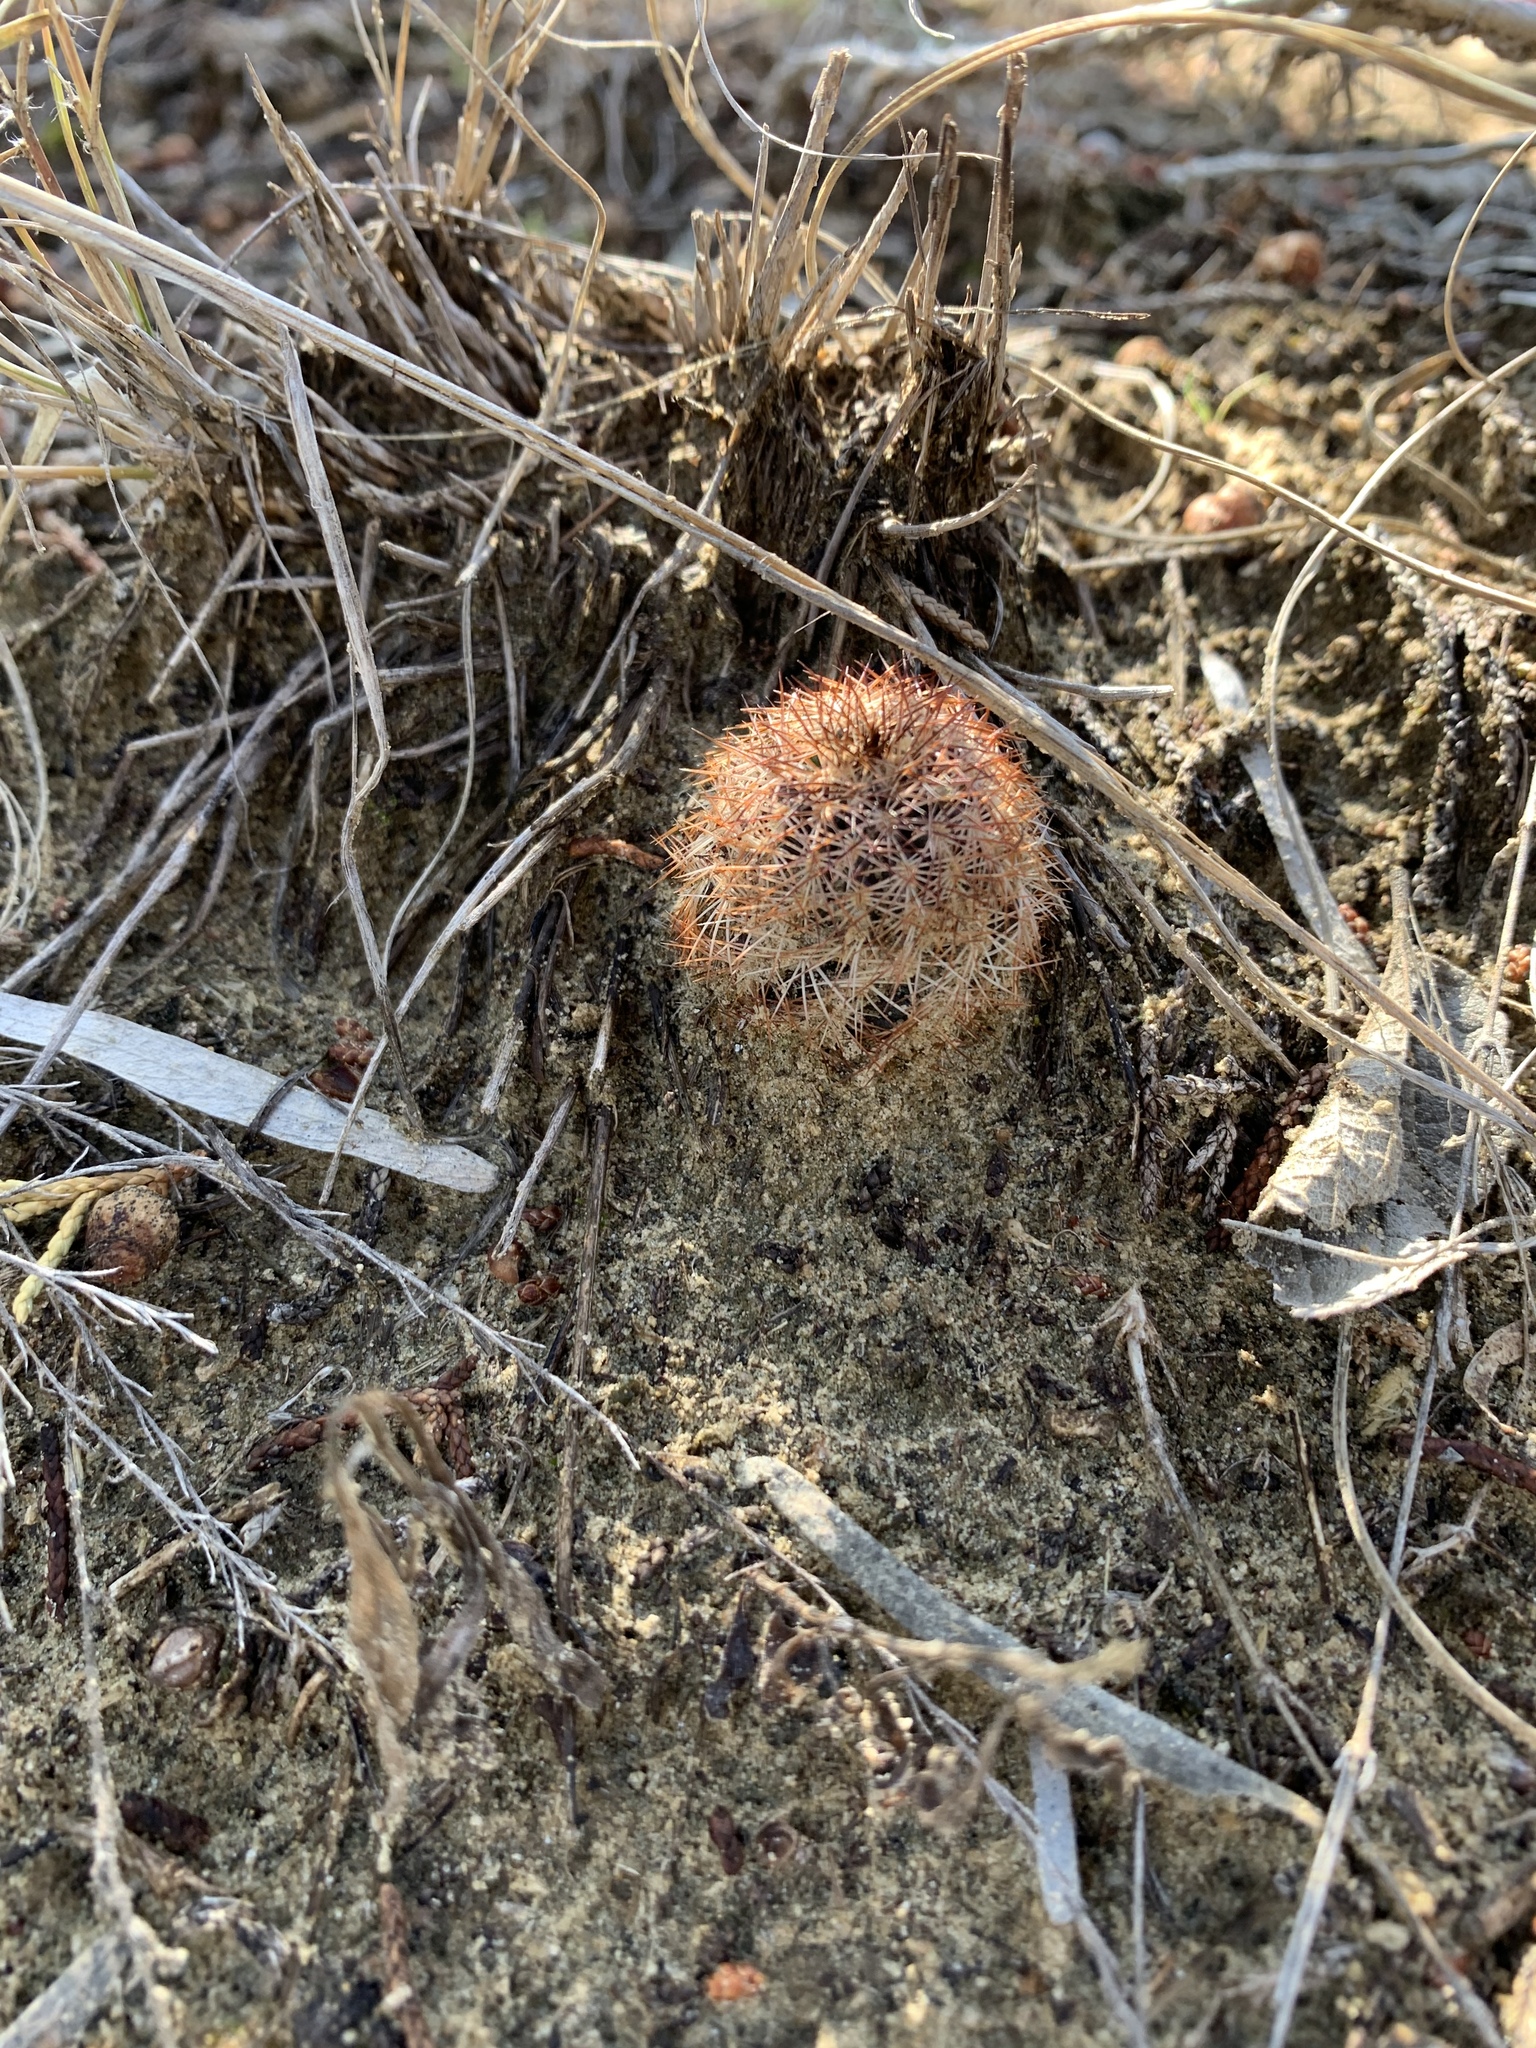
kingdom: Plantae
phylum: Tracheophyta
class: Magnoliopsida
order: Caryophyllales
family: Cactaceae
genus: Echinocereus
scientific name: Echinocereus reichenbachii
